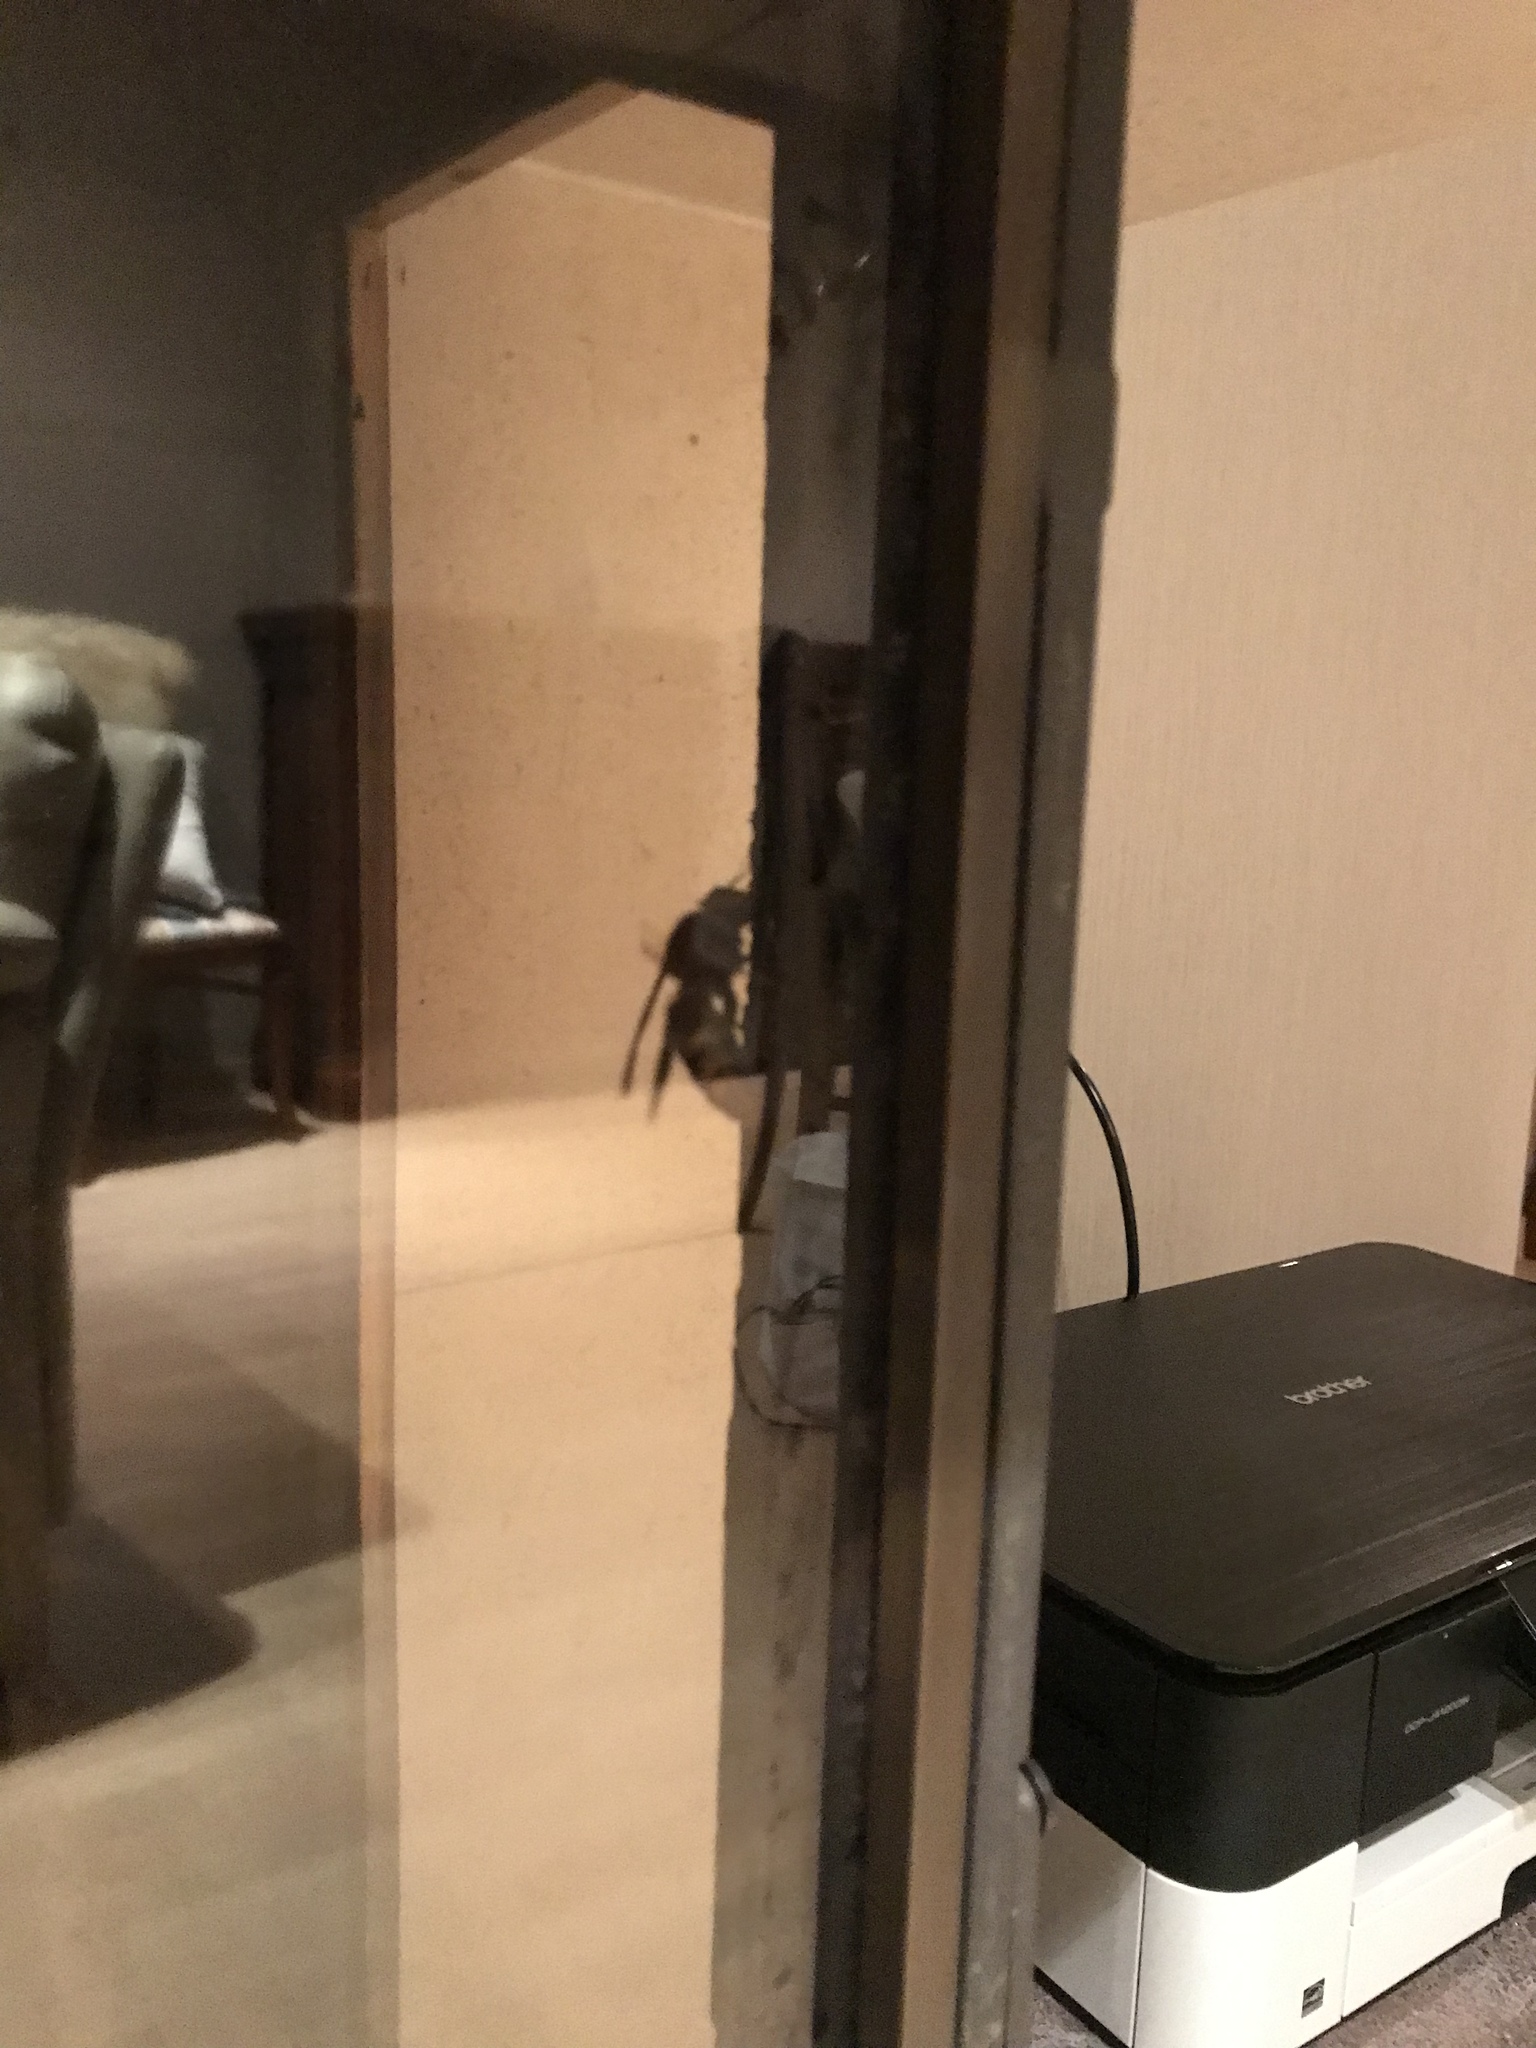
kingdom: Animalia
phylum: Arthropoda
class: Insecta
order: Hymenoptera
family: Vespidae
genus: Vespa
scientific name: Vespa crabro
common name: Hornet
